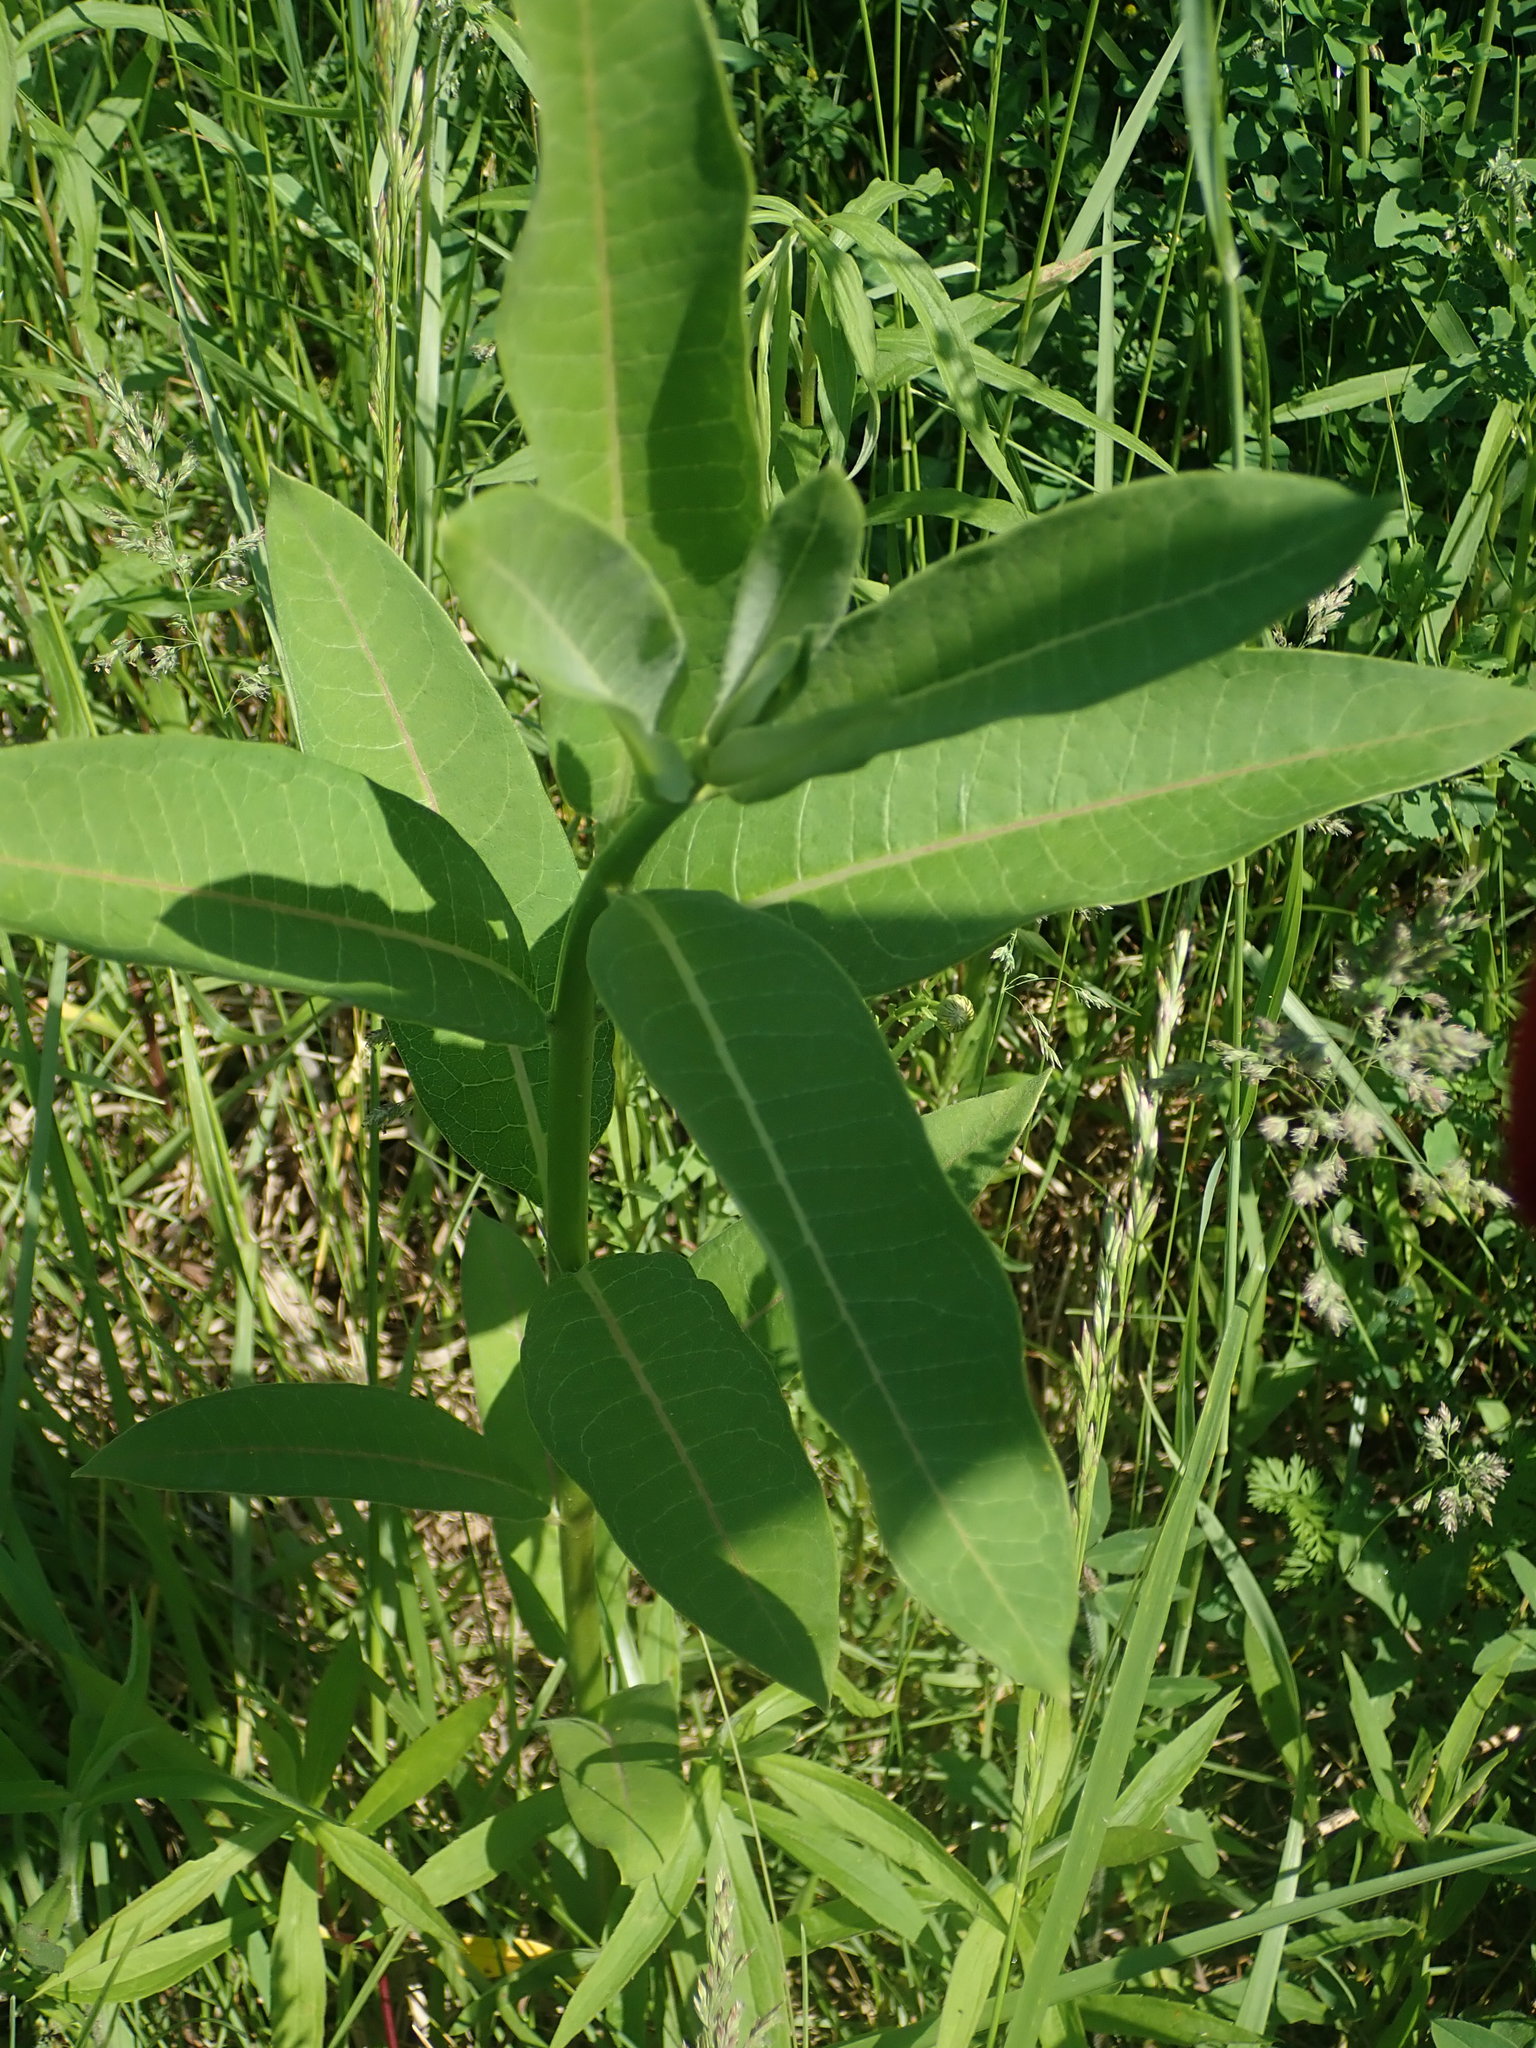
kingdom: Plantae
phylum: Tracheophyta
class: Magnoliopsida
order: Gentianales
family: Apocynaceae
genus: Asclepias
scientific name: Asclepias syriaca
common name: Common milkweed
